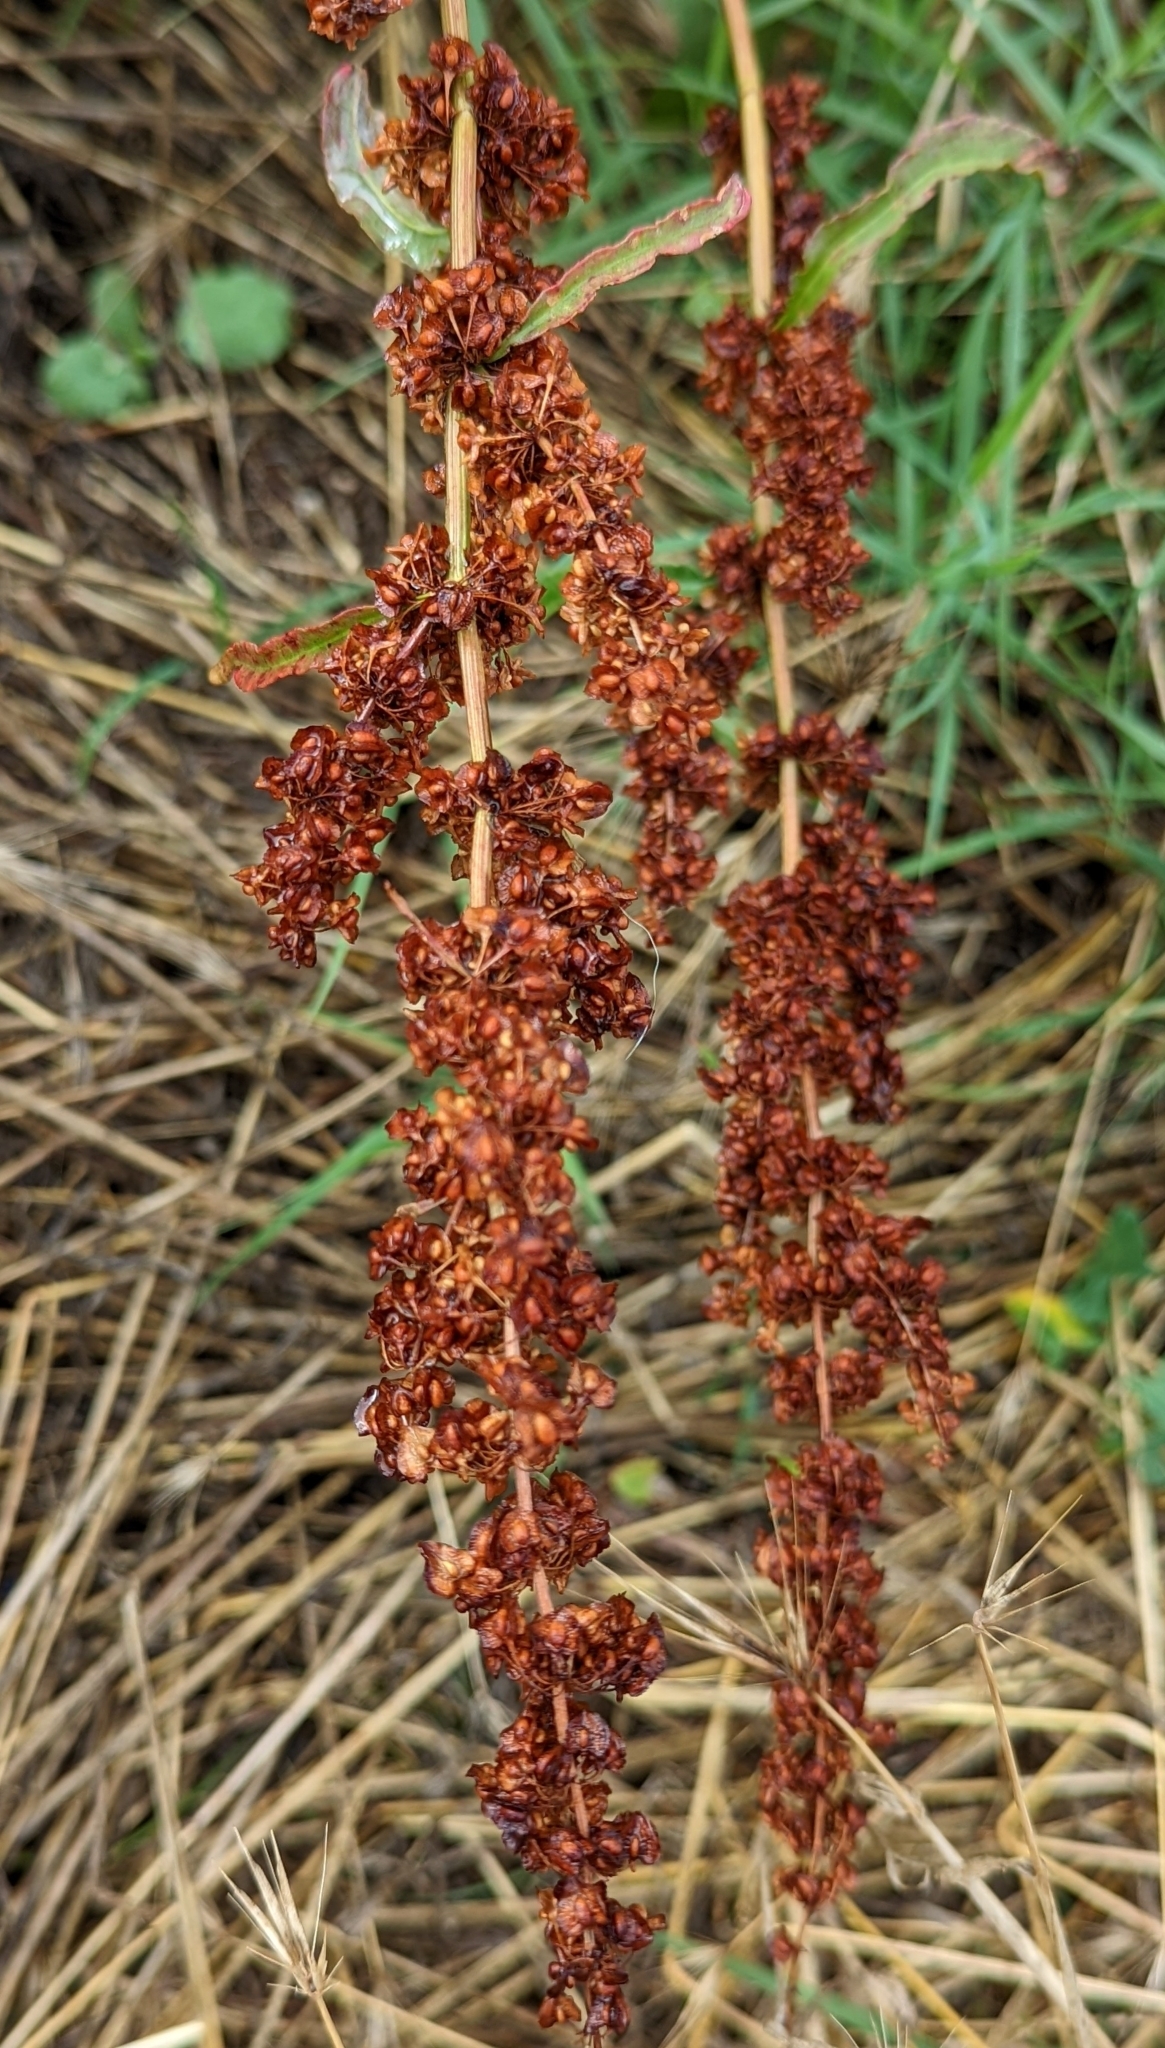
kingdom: Plantae
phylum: Tracheophyta
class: Magnoliopsida
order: Caryophyllales
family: Polygonaceae
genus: Rumex
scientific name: Rumex crispus
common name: Curled dock
